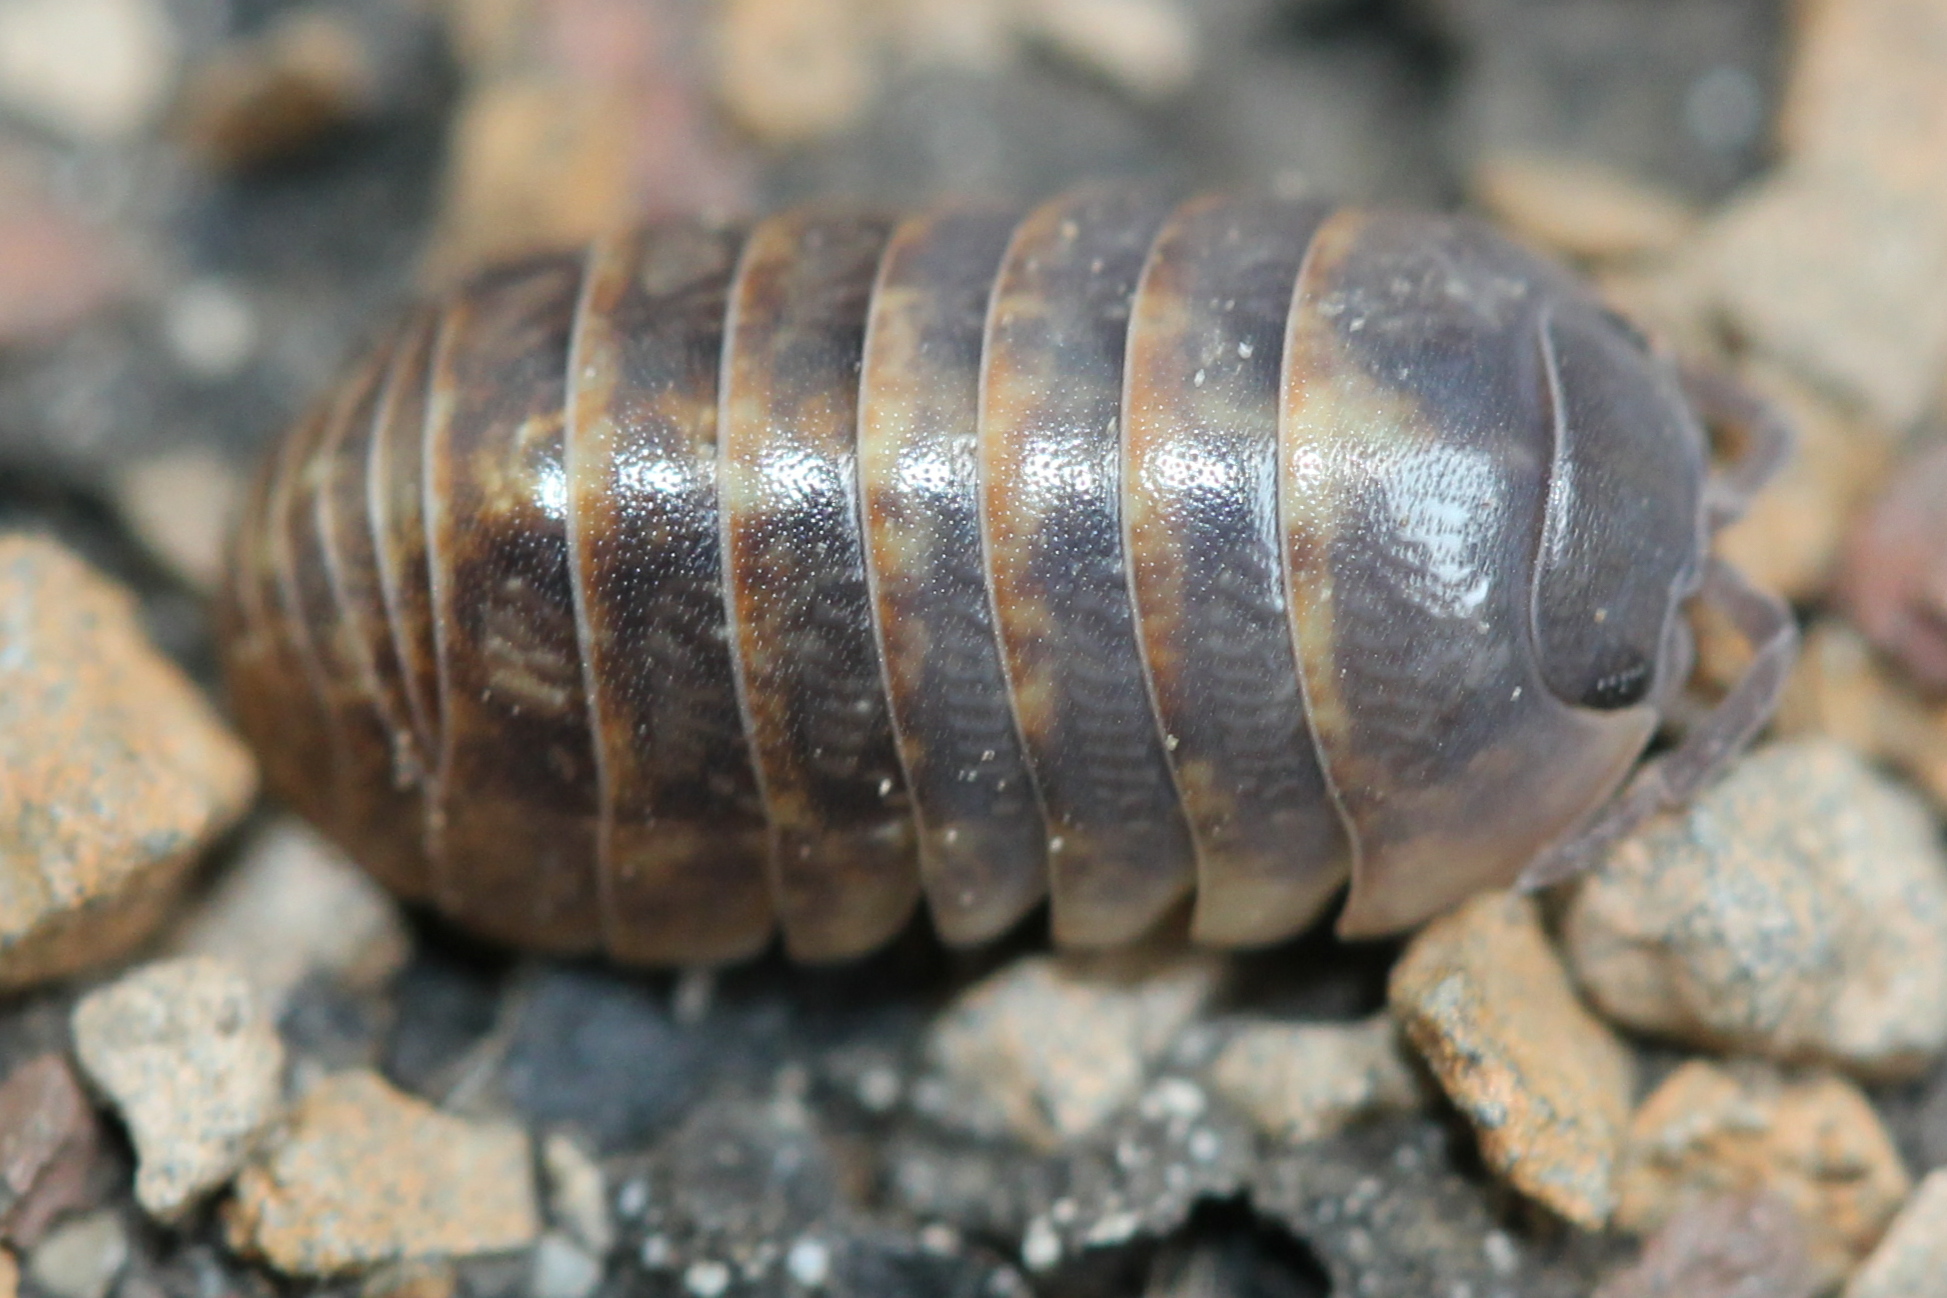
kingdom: Animalia
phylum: Arthropoda
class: Malacostraca
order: Isopoda
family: Armadillidiidae
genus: Armadillidium
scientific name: Armadillidium vulgare
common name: Common pill woodlouse
